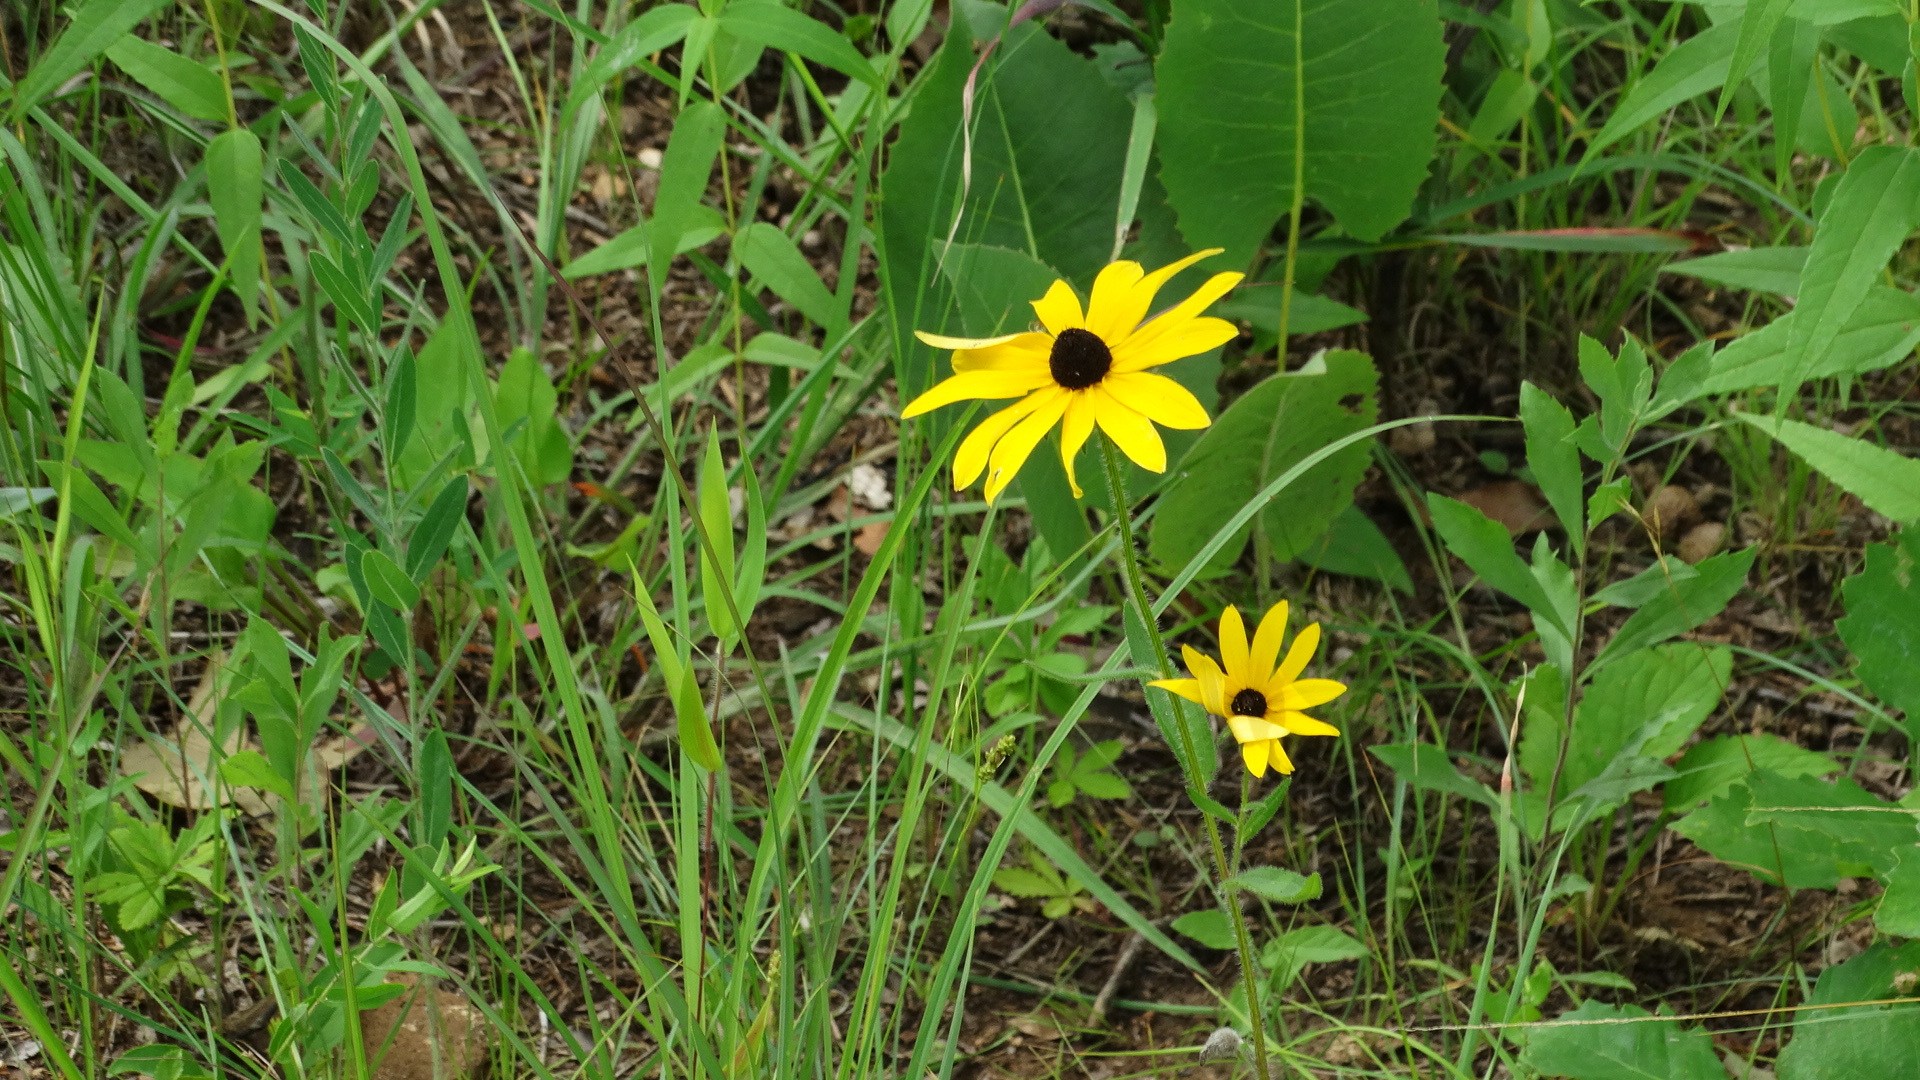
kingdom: Plantae
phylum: Tracheophyta
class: Magnoliopsida
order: Asterales
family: Asteraceae
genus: Rudbeckia
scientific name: Rudbeckia hirta
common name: Black-eyed-susan
